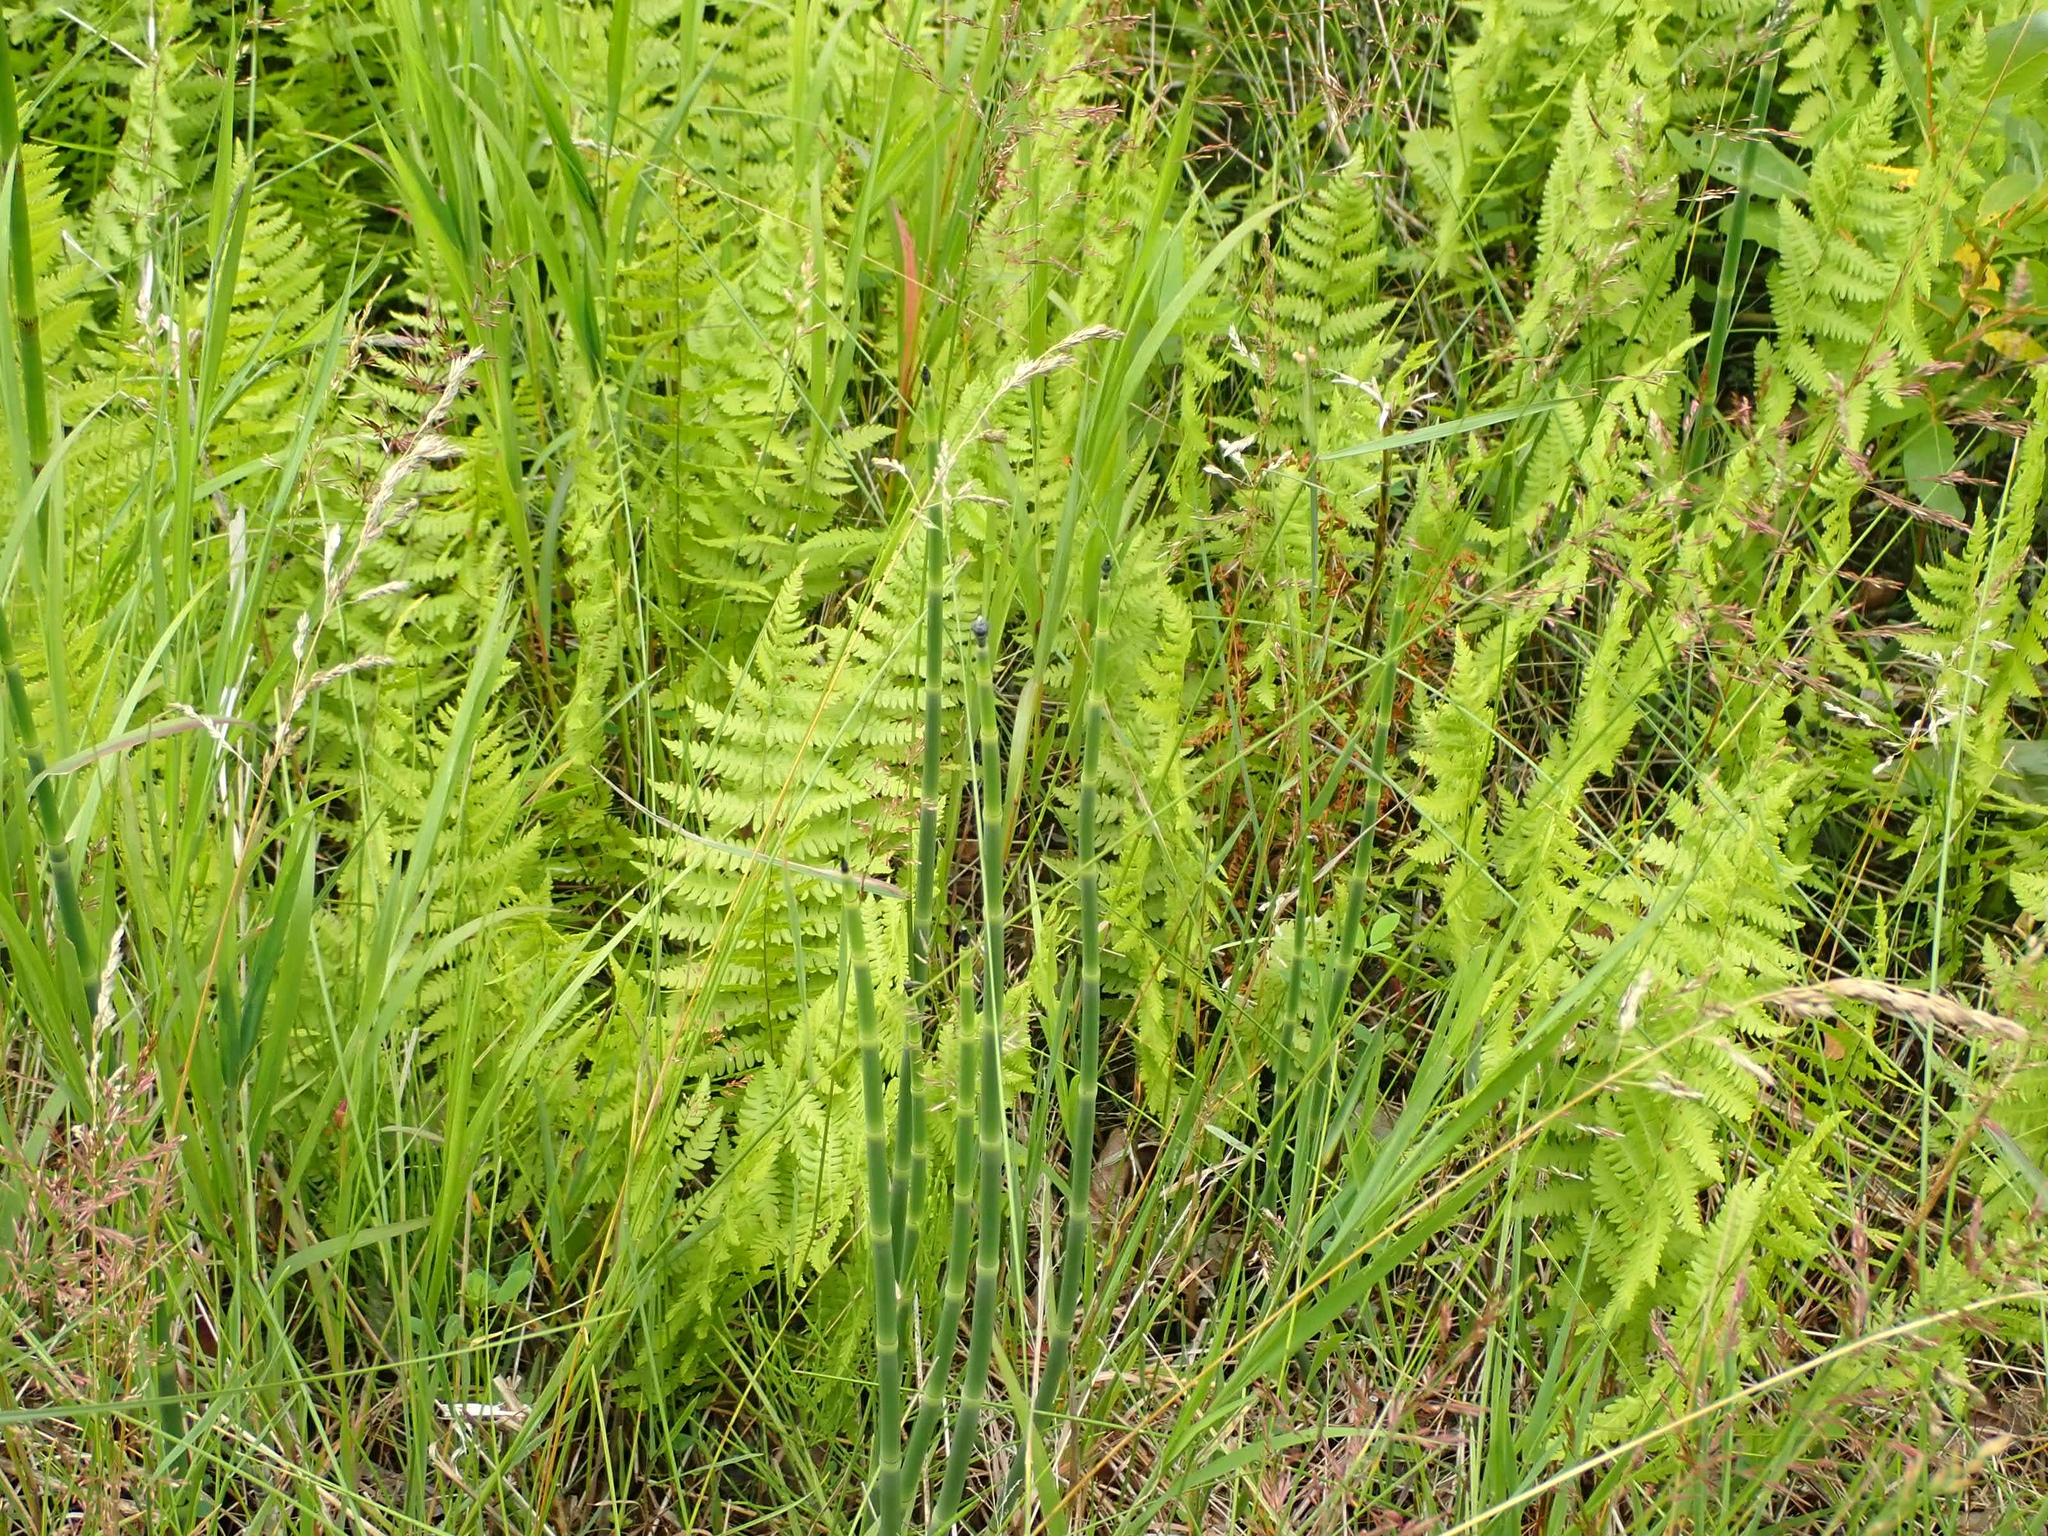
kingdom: Plantae
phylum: Tracheophyta
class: Polypodiopsida
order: Polypodiales
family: Thelypteridaceae
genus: Thelypteris
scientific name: Thelypteris palustris
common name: Marsh fern
